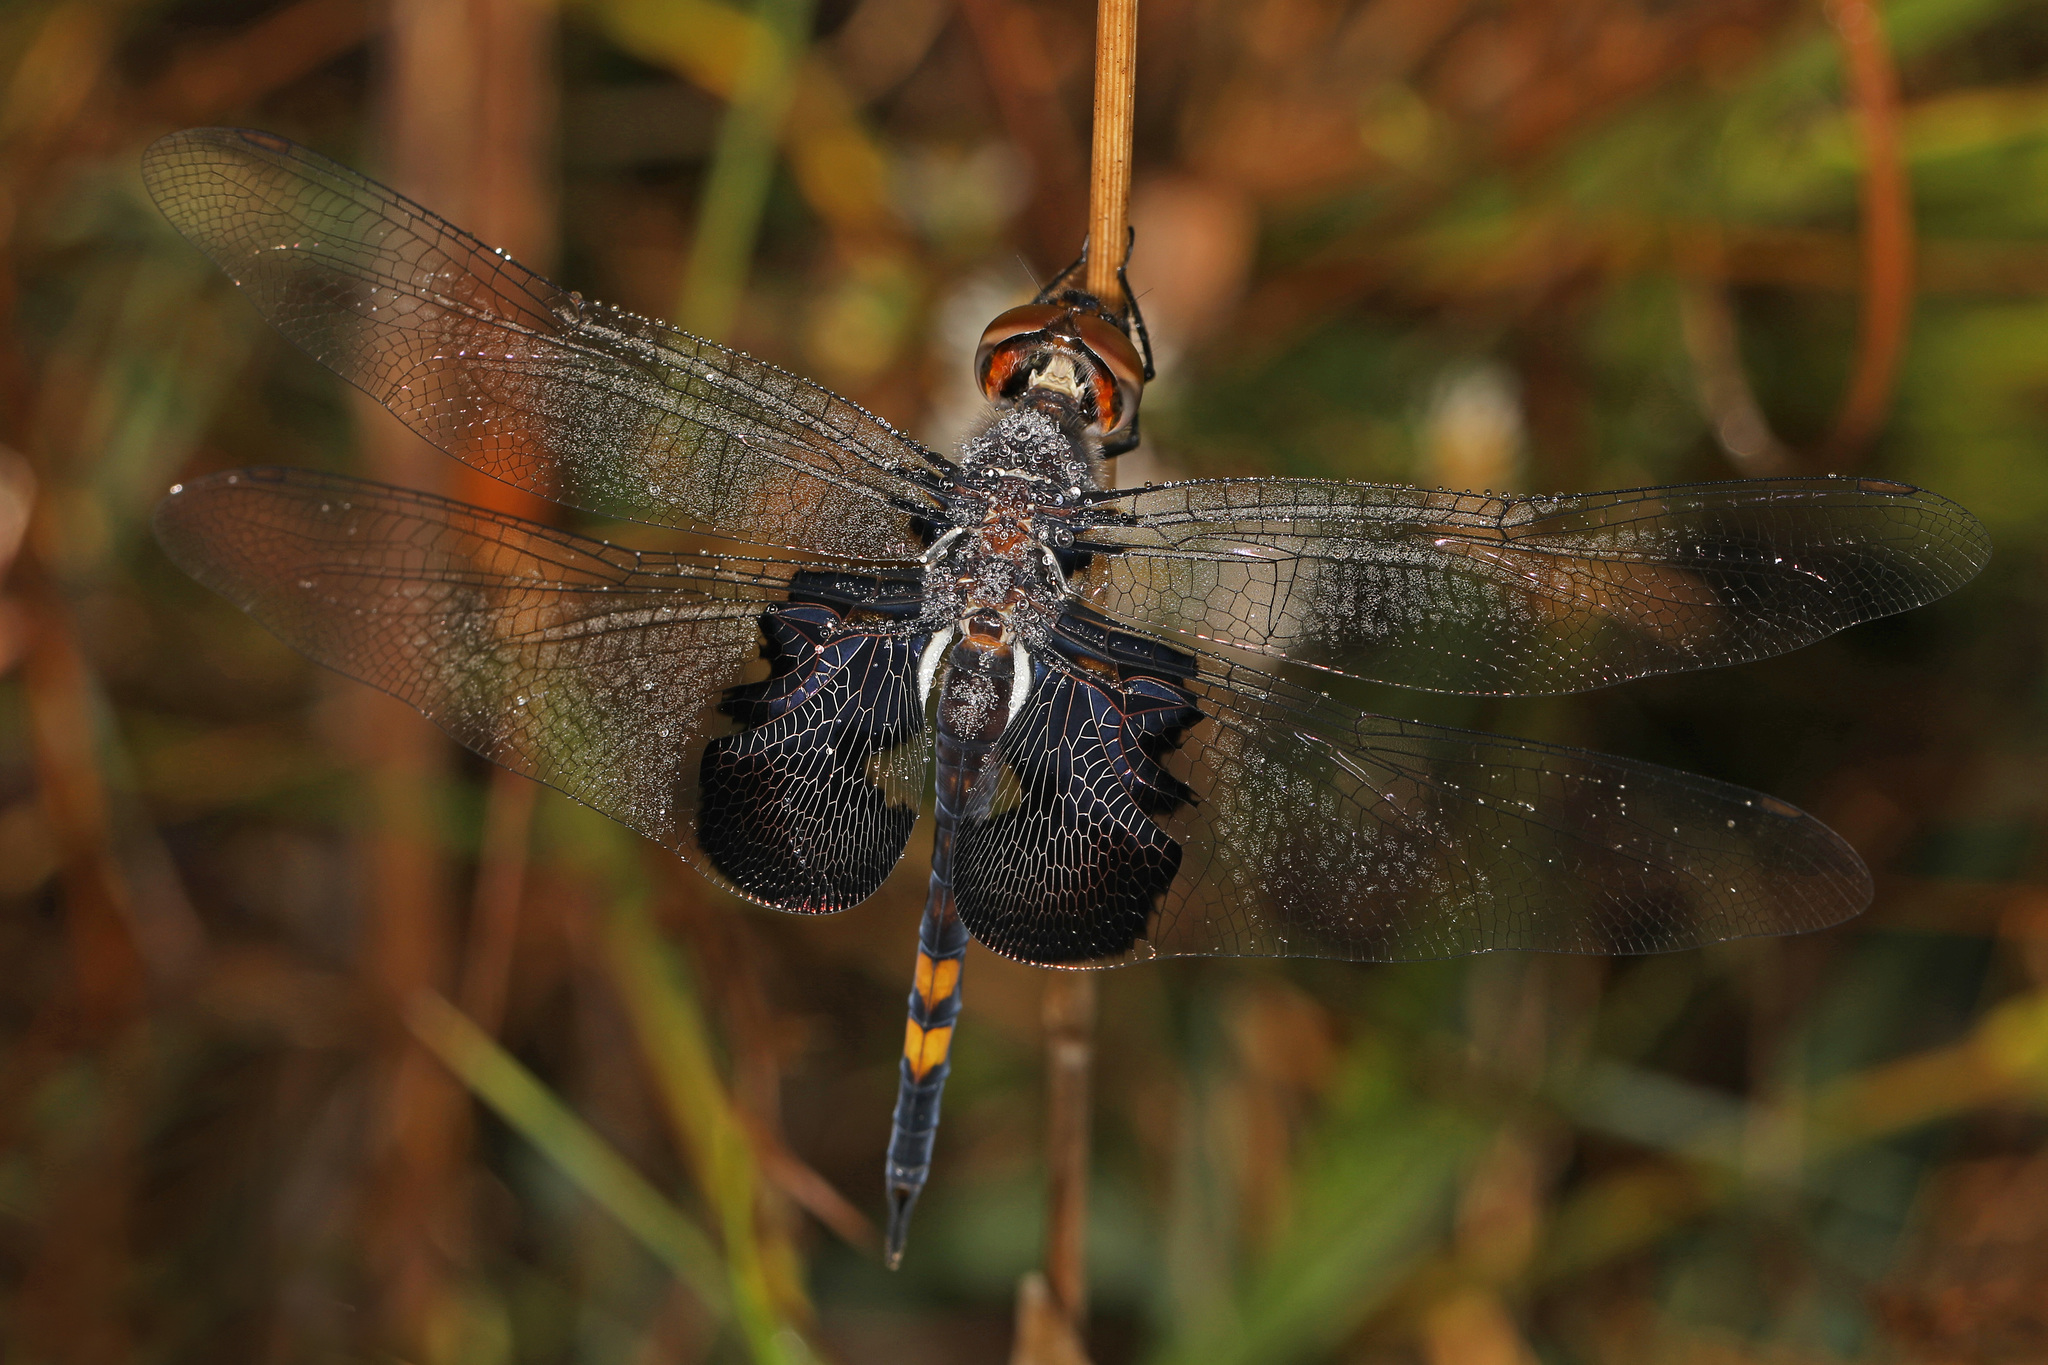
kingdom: Animalia
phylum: Arthropoda
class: Insecta
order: Odonata
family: Libellulidae
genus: Tramea
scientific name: Tramea lacerata
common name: Black saddlebags
